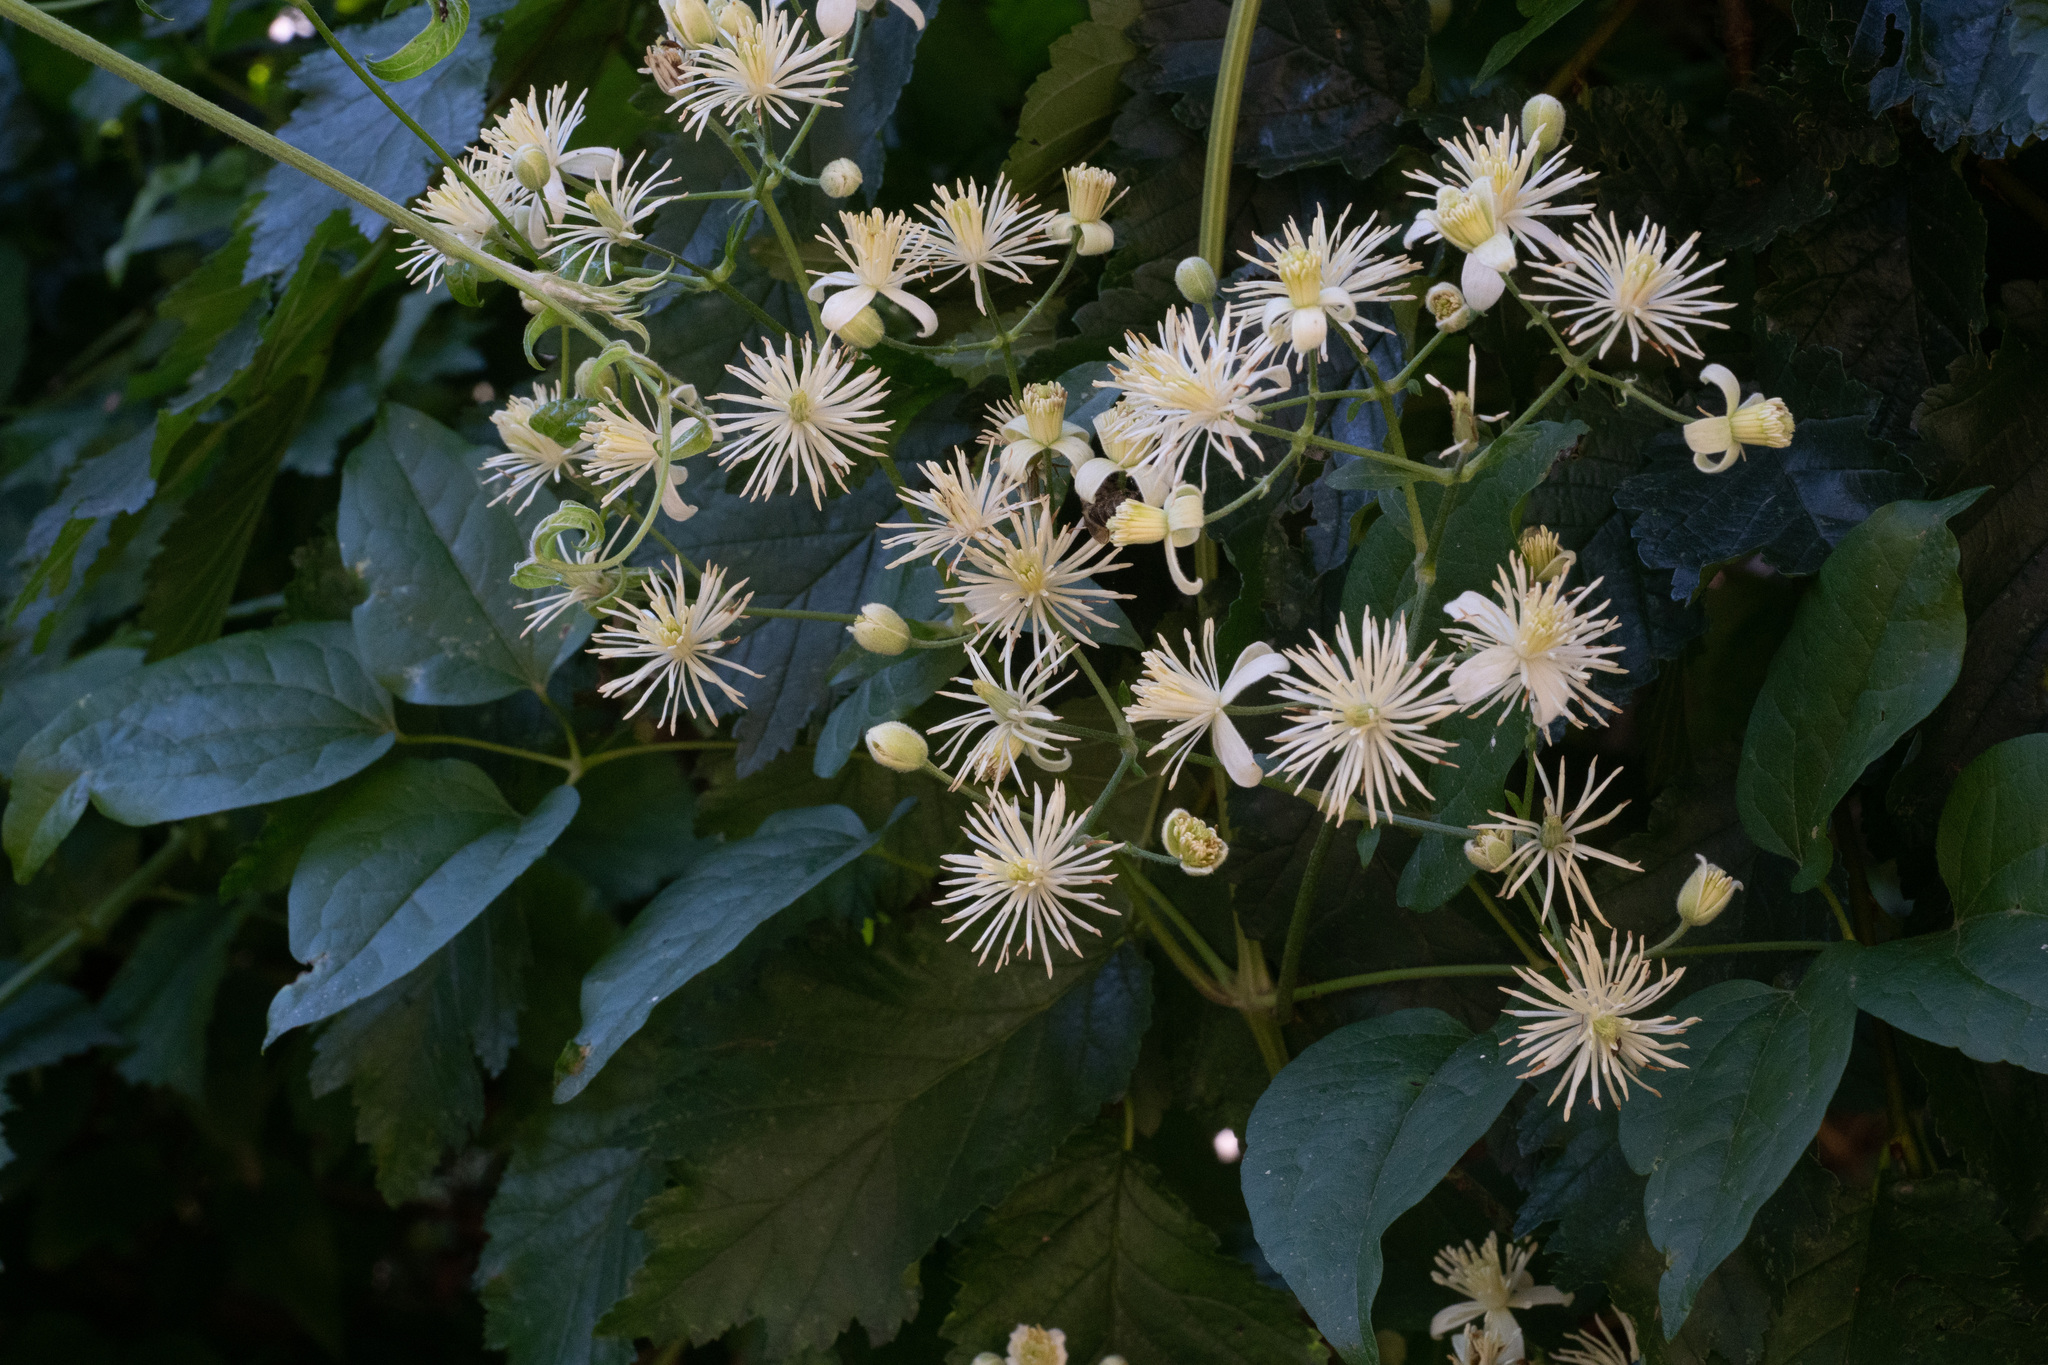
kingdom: Plantae
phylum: Tracheophyta
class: Magnoliopsida
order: Ranunculales
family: Ranunculaceae
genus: Clematis
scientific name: Clematis vitalba
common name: Evergreen clematis
